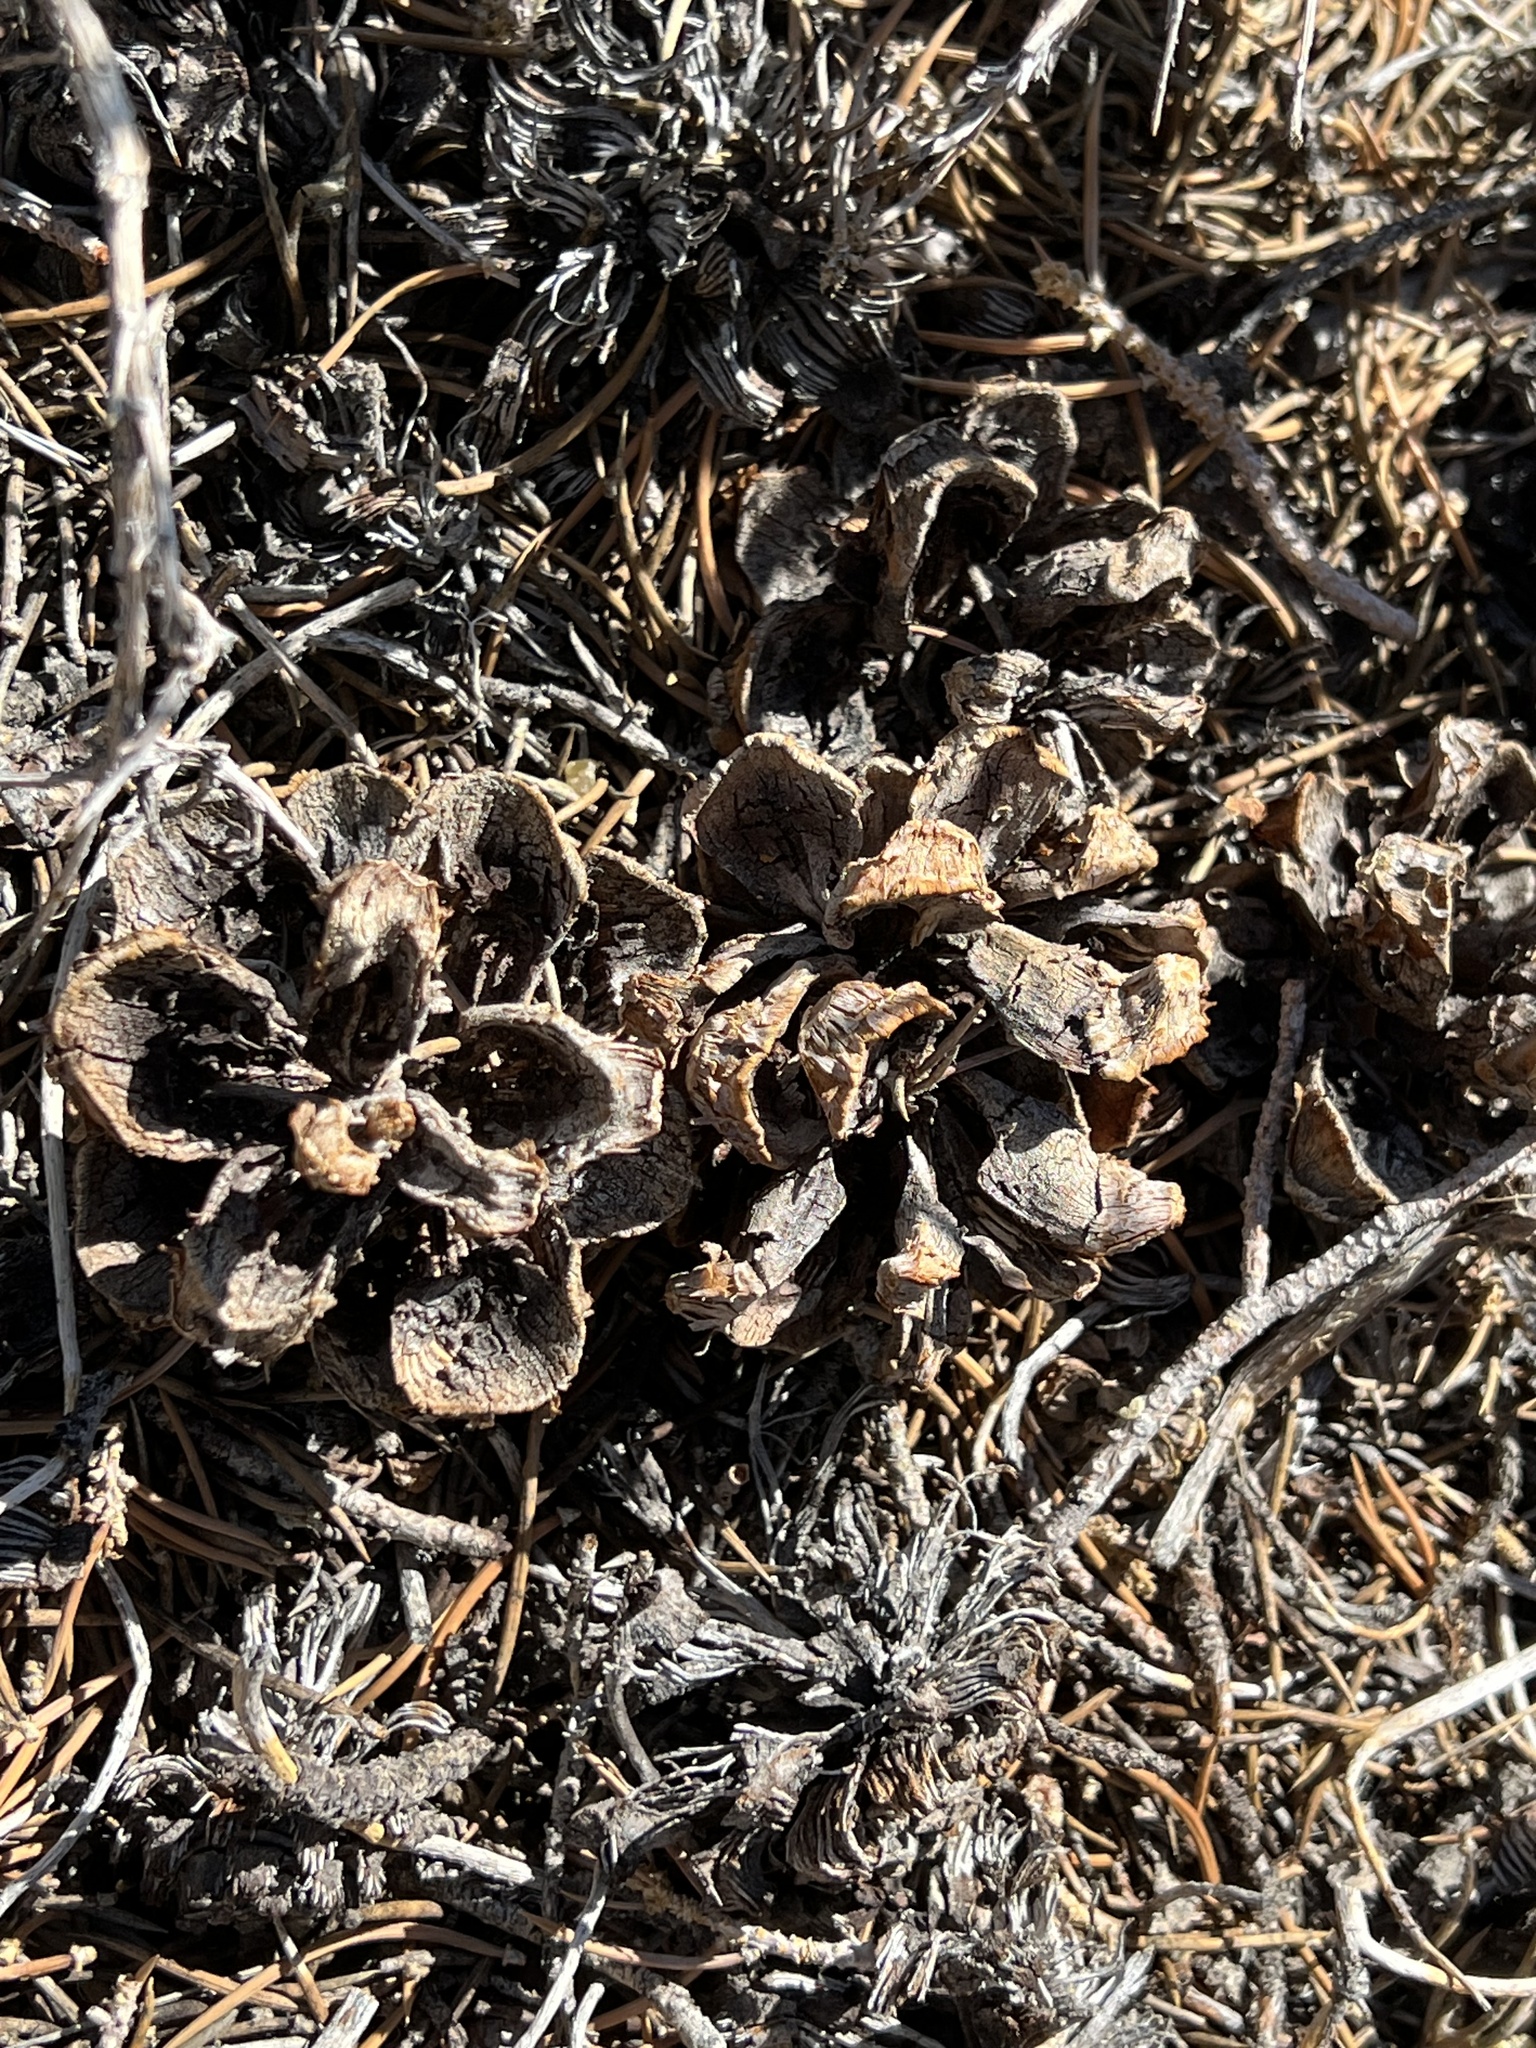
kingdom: Plantae
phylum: Tracheophyta
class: Pinopsida
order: Pinales
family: Pinaceae
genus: Pinus
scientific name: Pinus monophylla
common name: One-leaved nut pine
